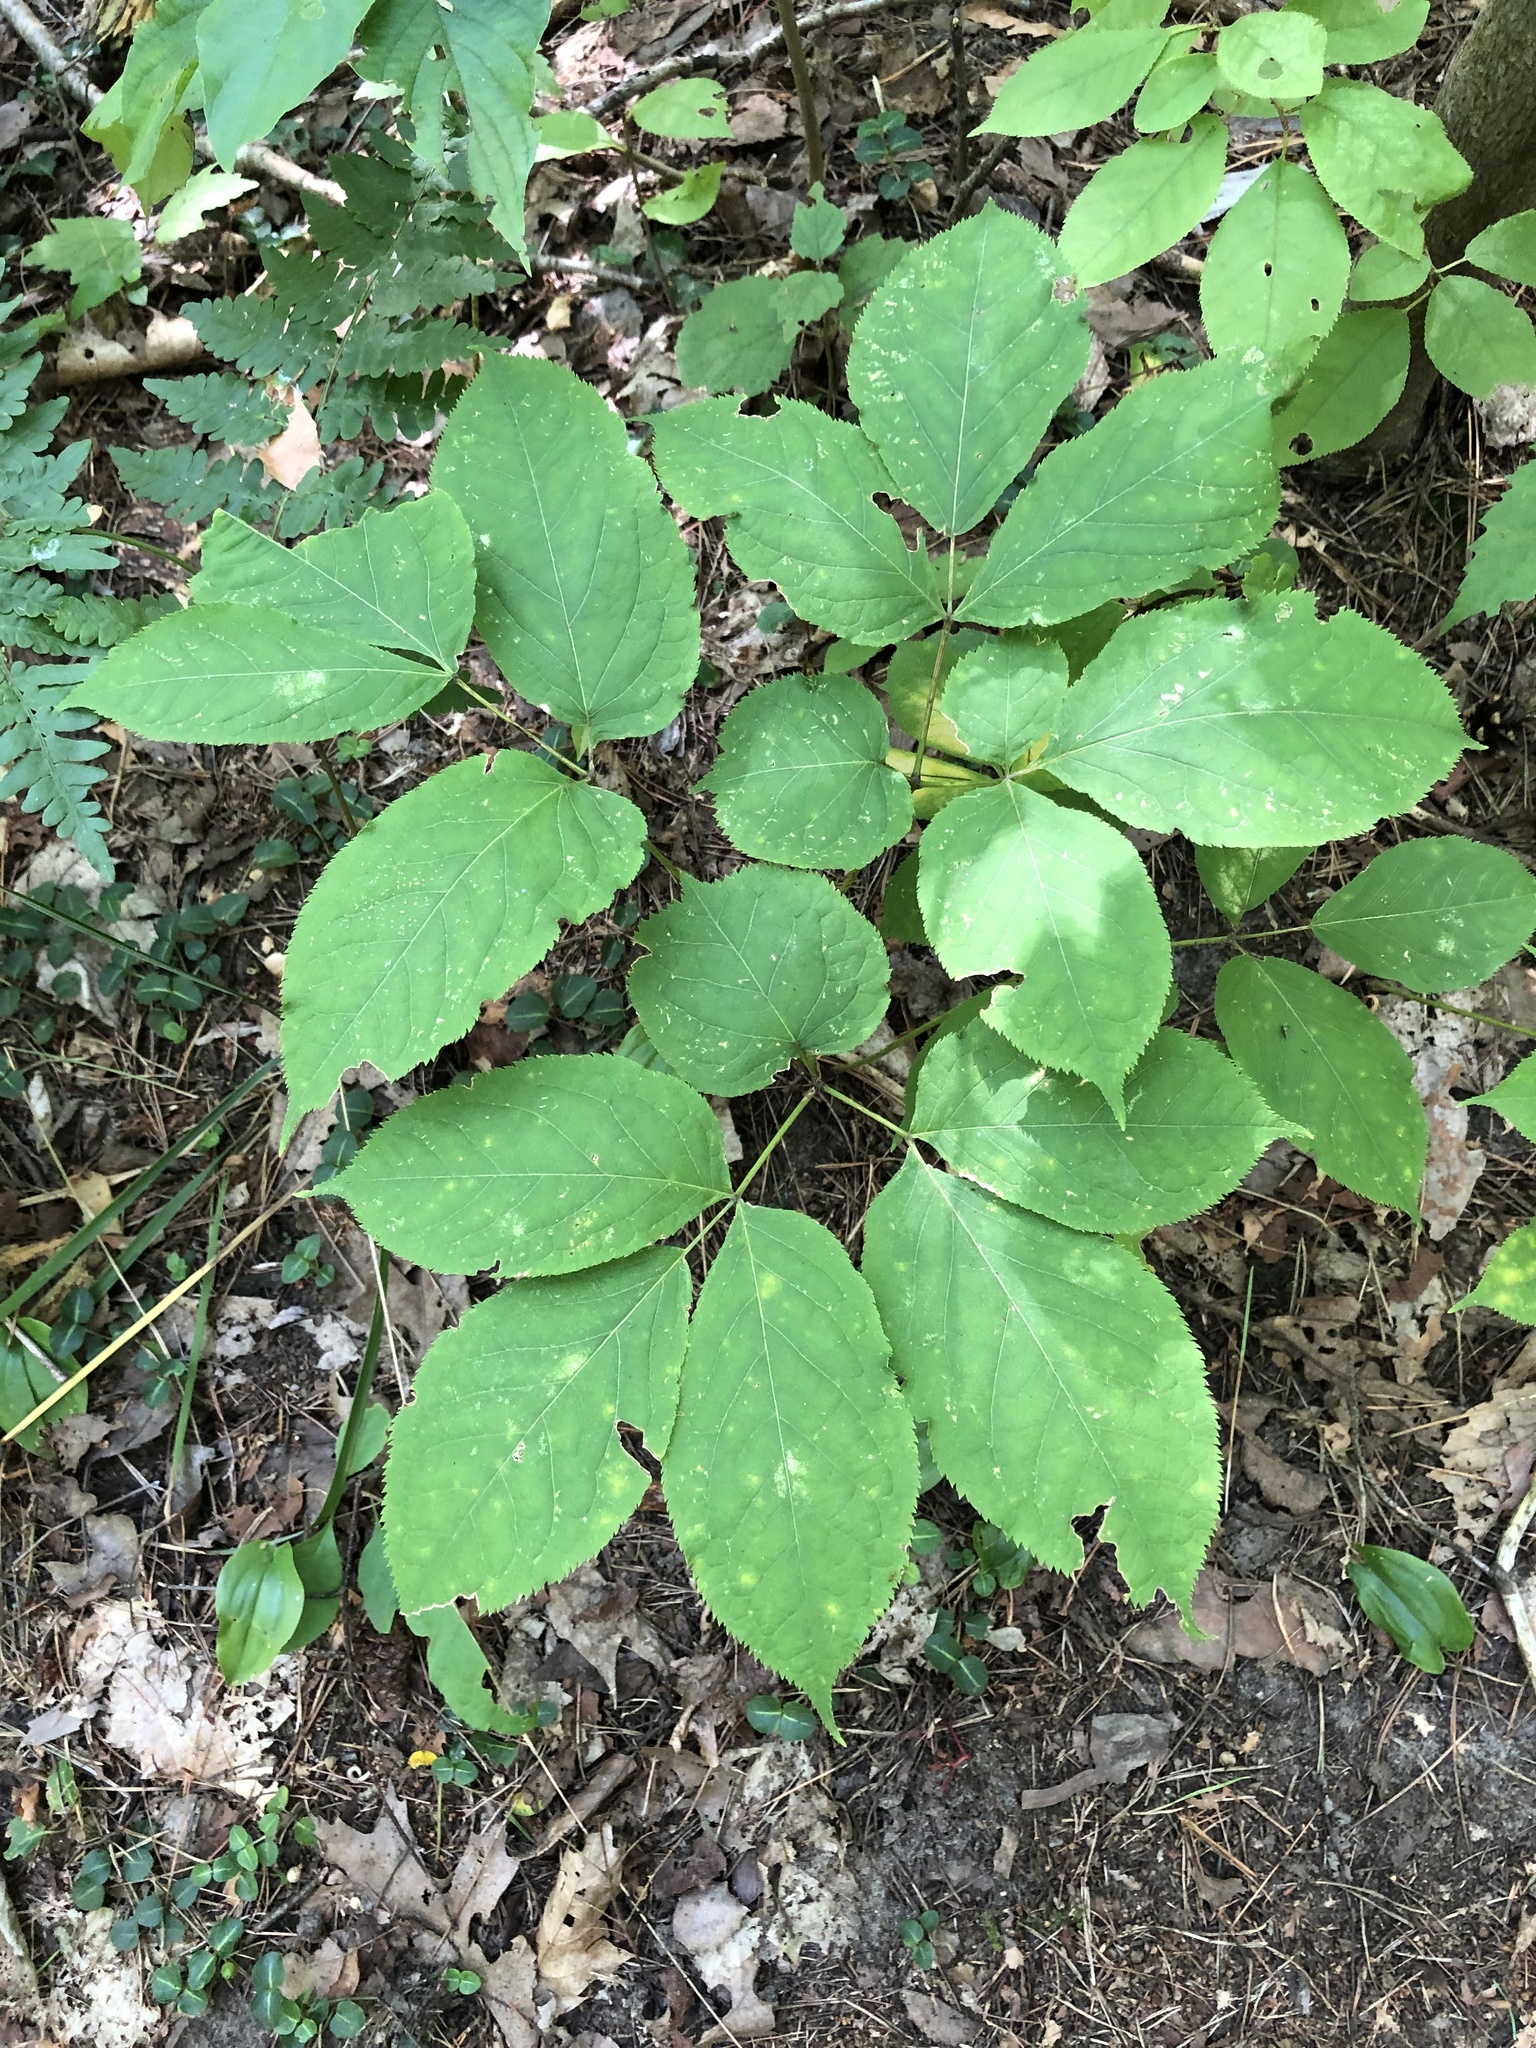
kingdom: Plantae
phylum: Tracheophyta
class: Magnoliopsida
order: Apiales
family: Araliaceae
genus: Aralia
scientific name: Aralia nudicaulis
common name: Wild sarsaparilla
